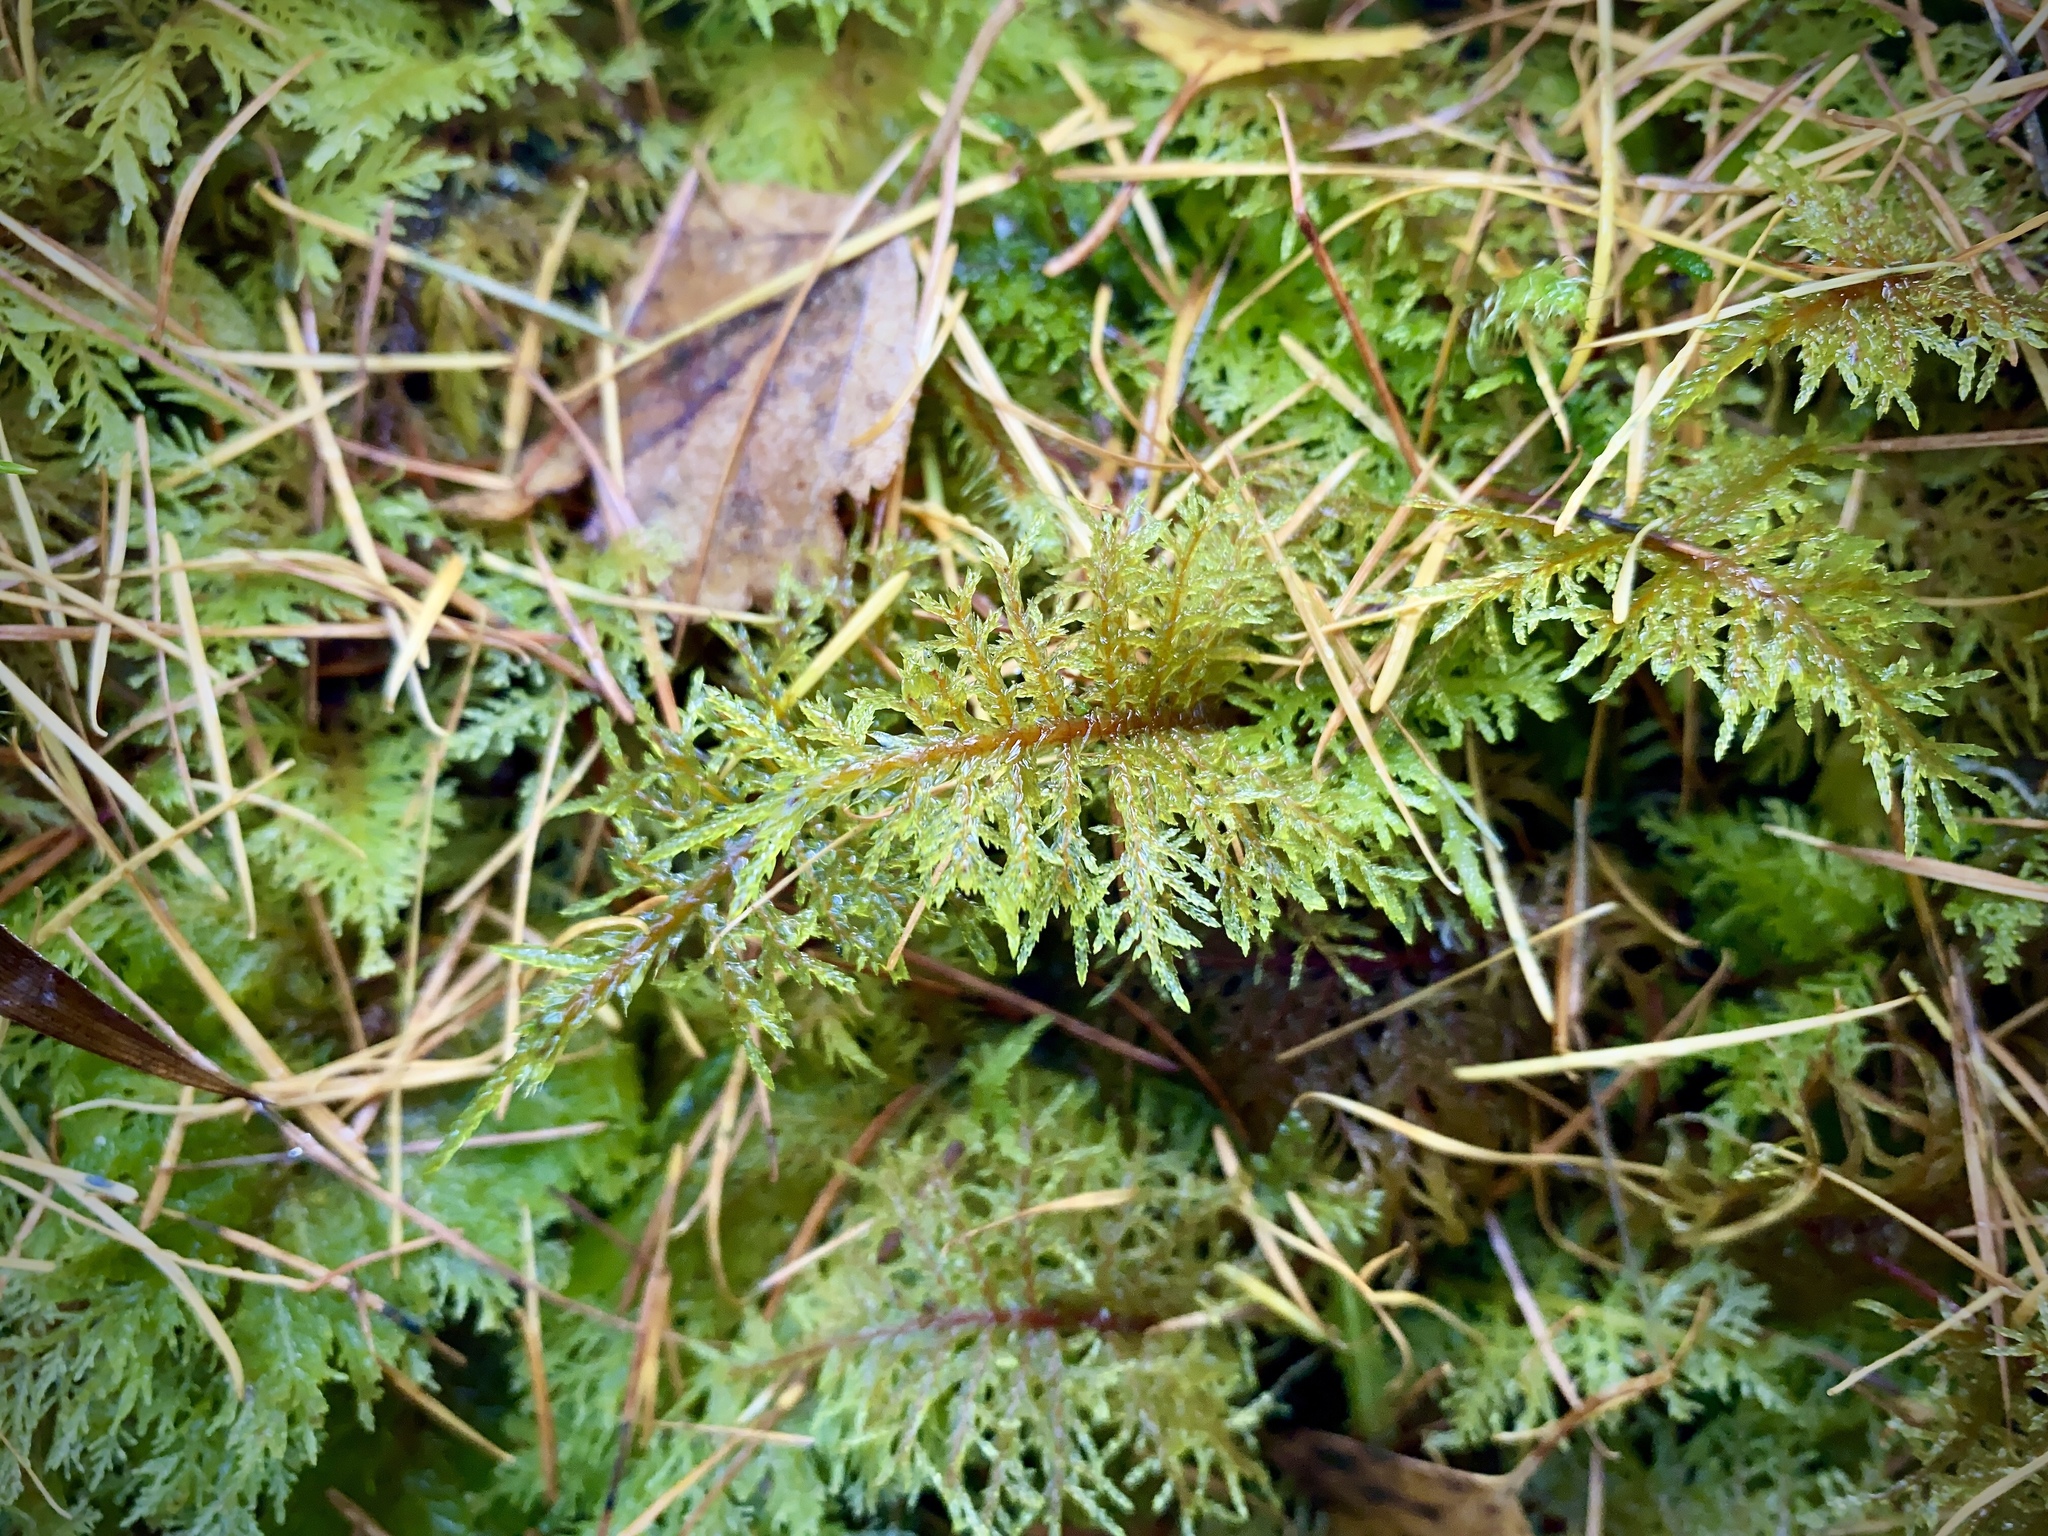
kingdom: Plantae
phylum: Bryophyta
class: Bryopsida
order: Hypnales
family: Hylocomiaceae
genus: Hylocomium
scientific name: Hylocomium splendens
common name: Stairstep moss
